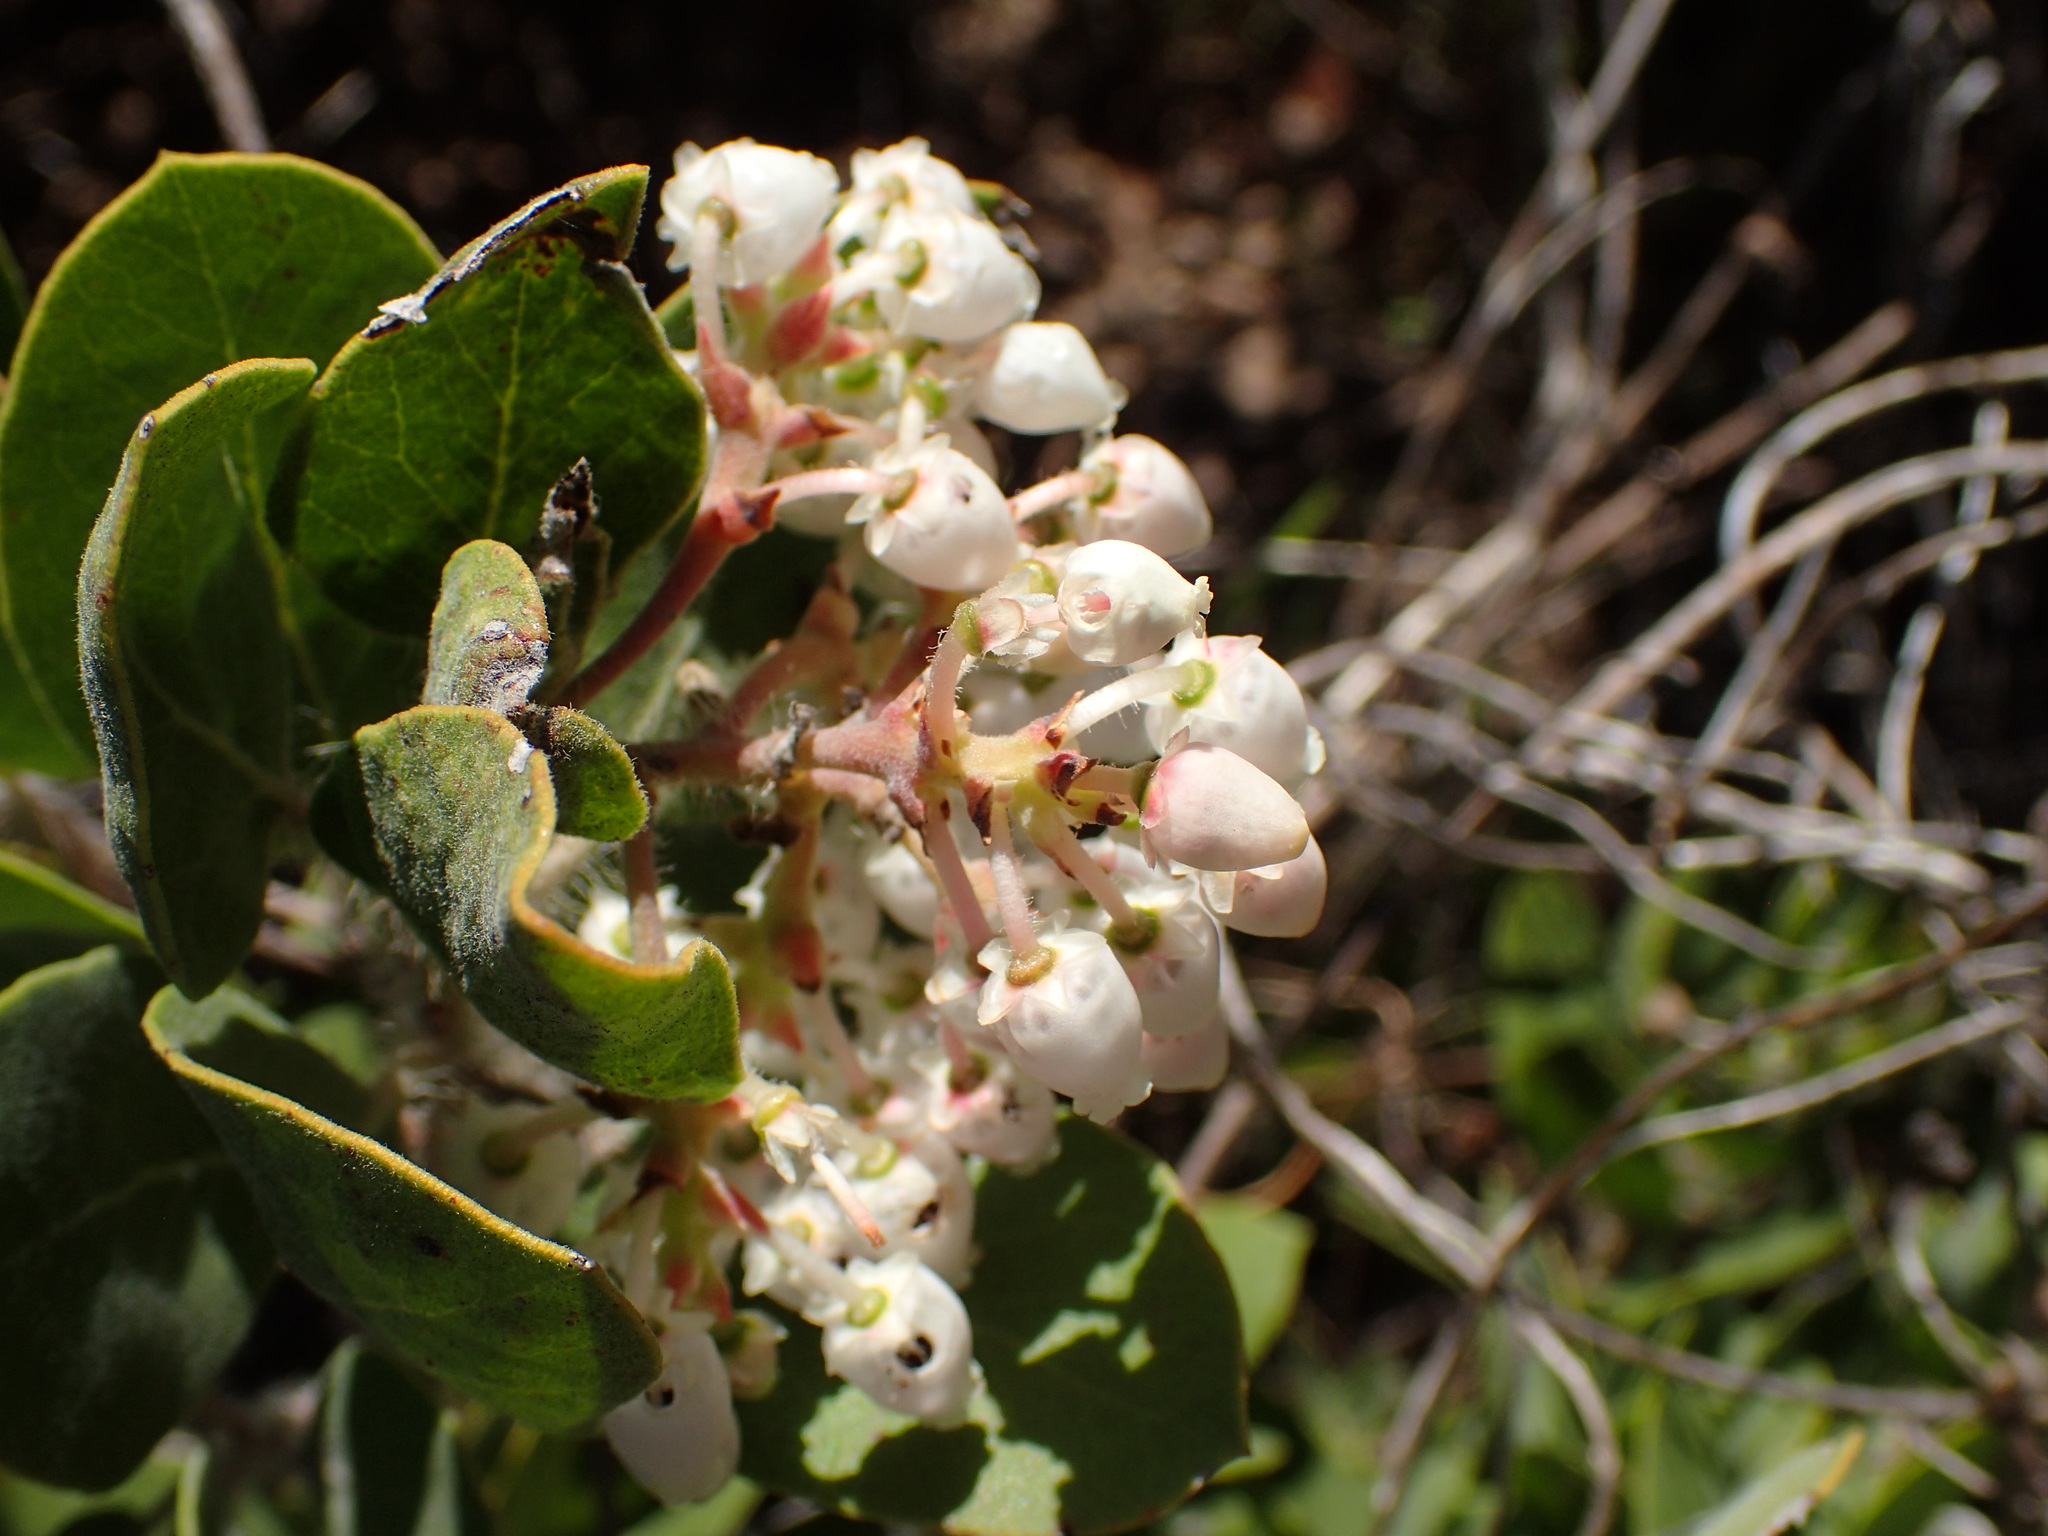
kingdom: Plantae
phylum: Tracheophyta
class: Magnoliopsida
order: Ericales
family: Ericaceae
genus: Arctostaphylos
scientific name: Arctostaphylos glandulosa
